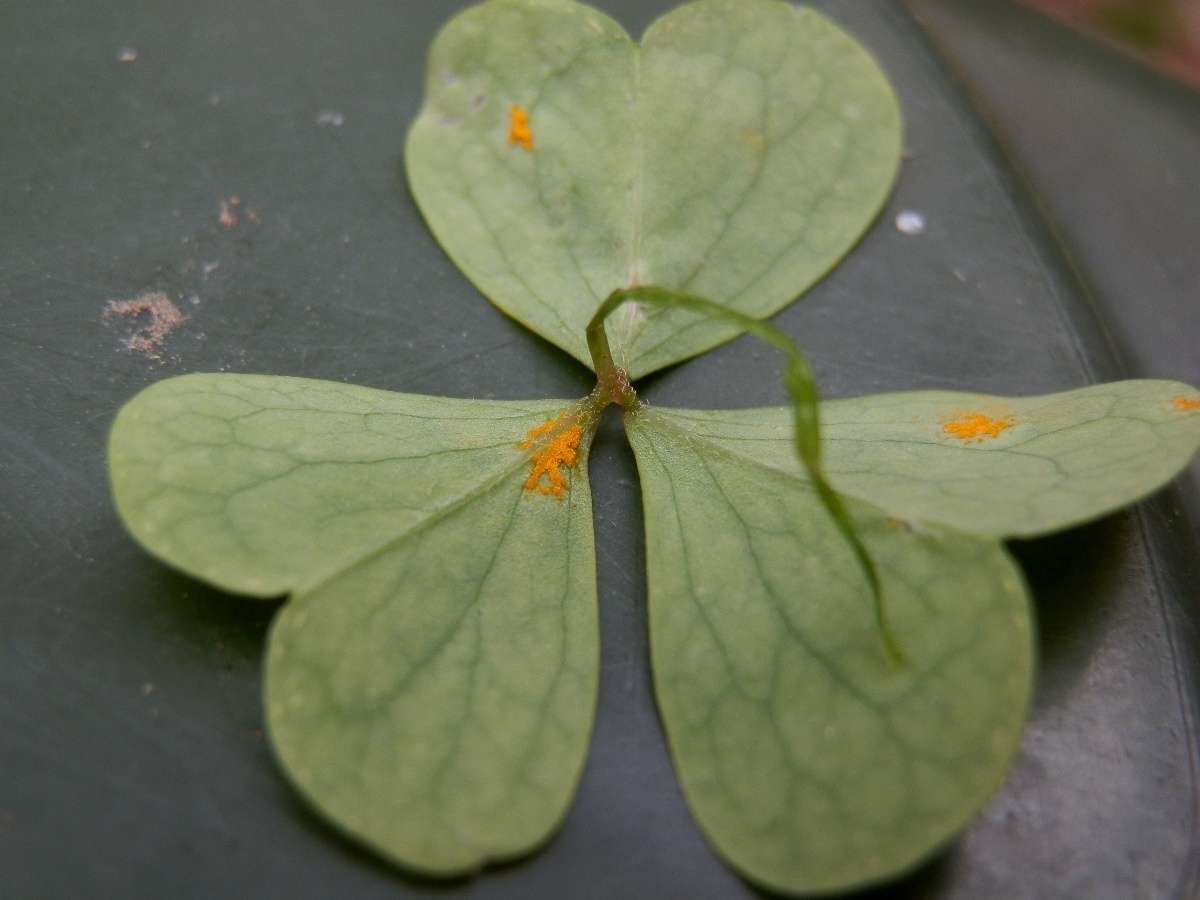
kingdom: Fungi
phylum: Basidiomycota
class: Pucciniomycetes
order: Pucciniales
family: Pucciniaceae
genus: Puccinia
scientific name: Puccinia oxalidis
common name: Oxalis rust
